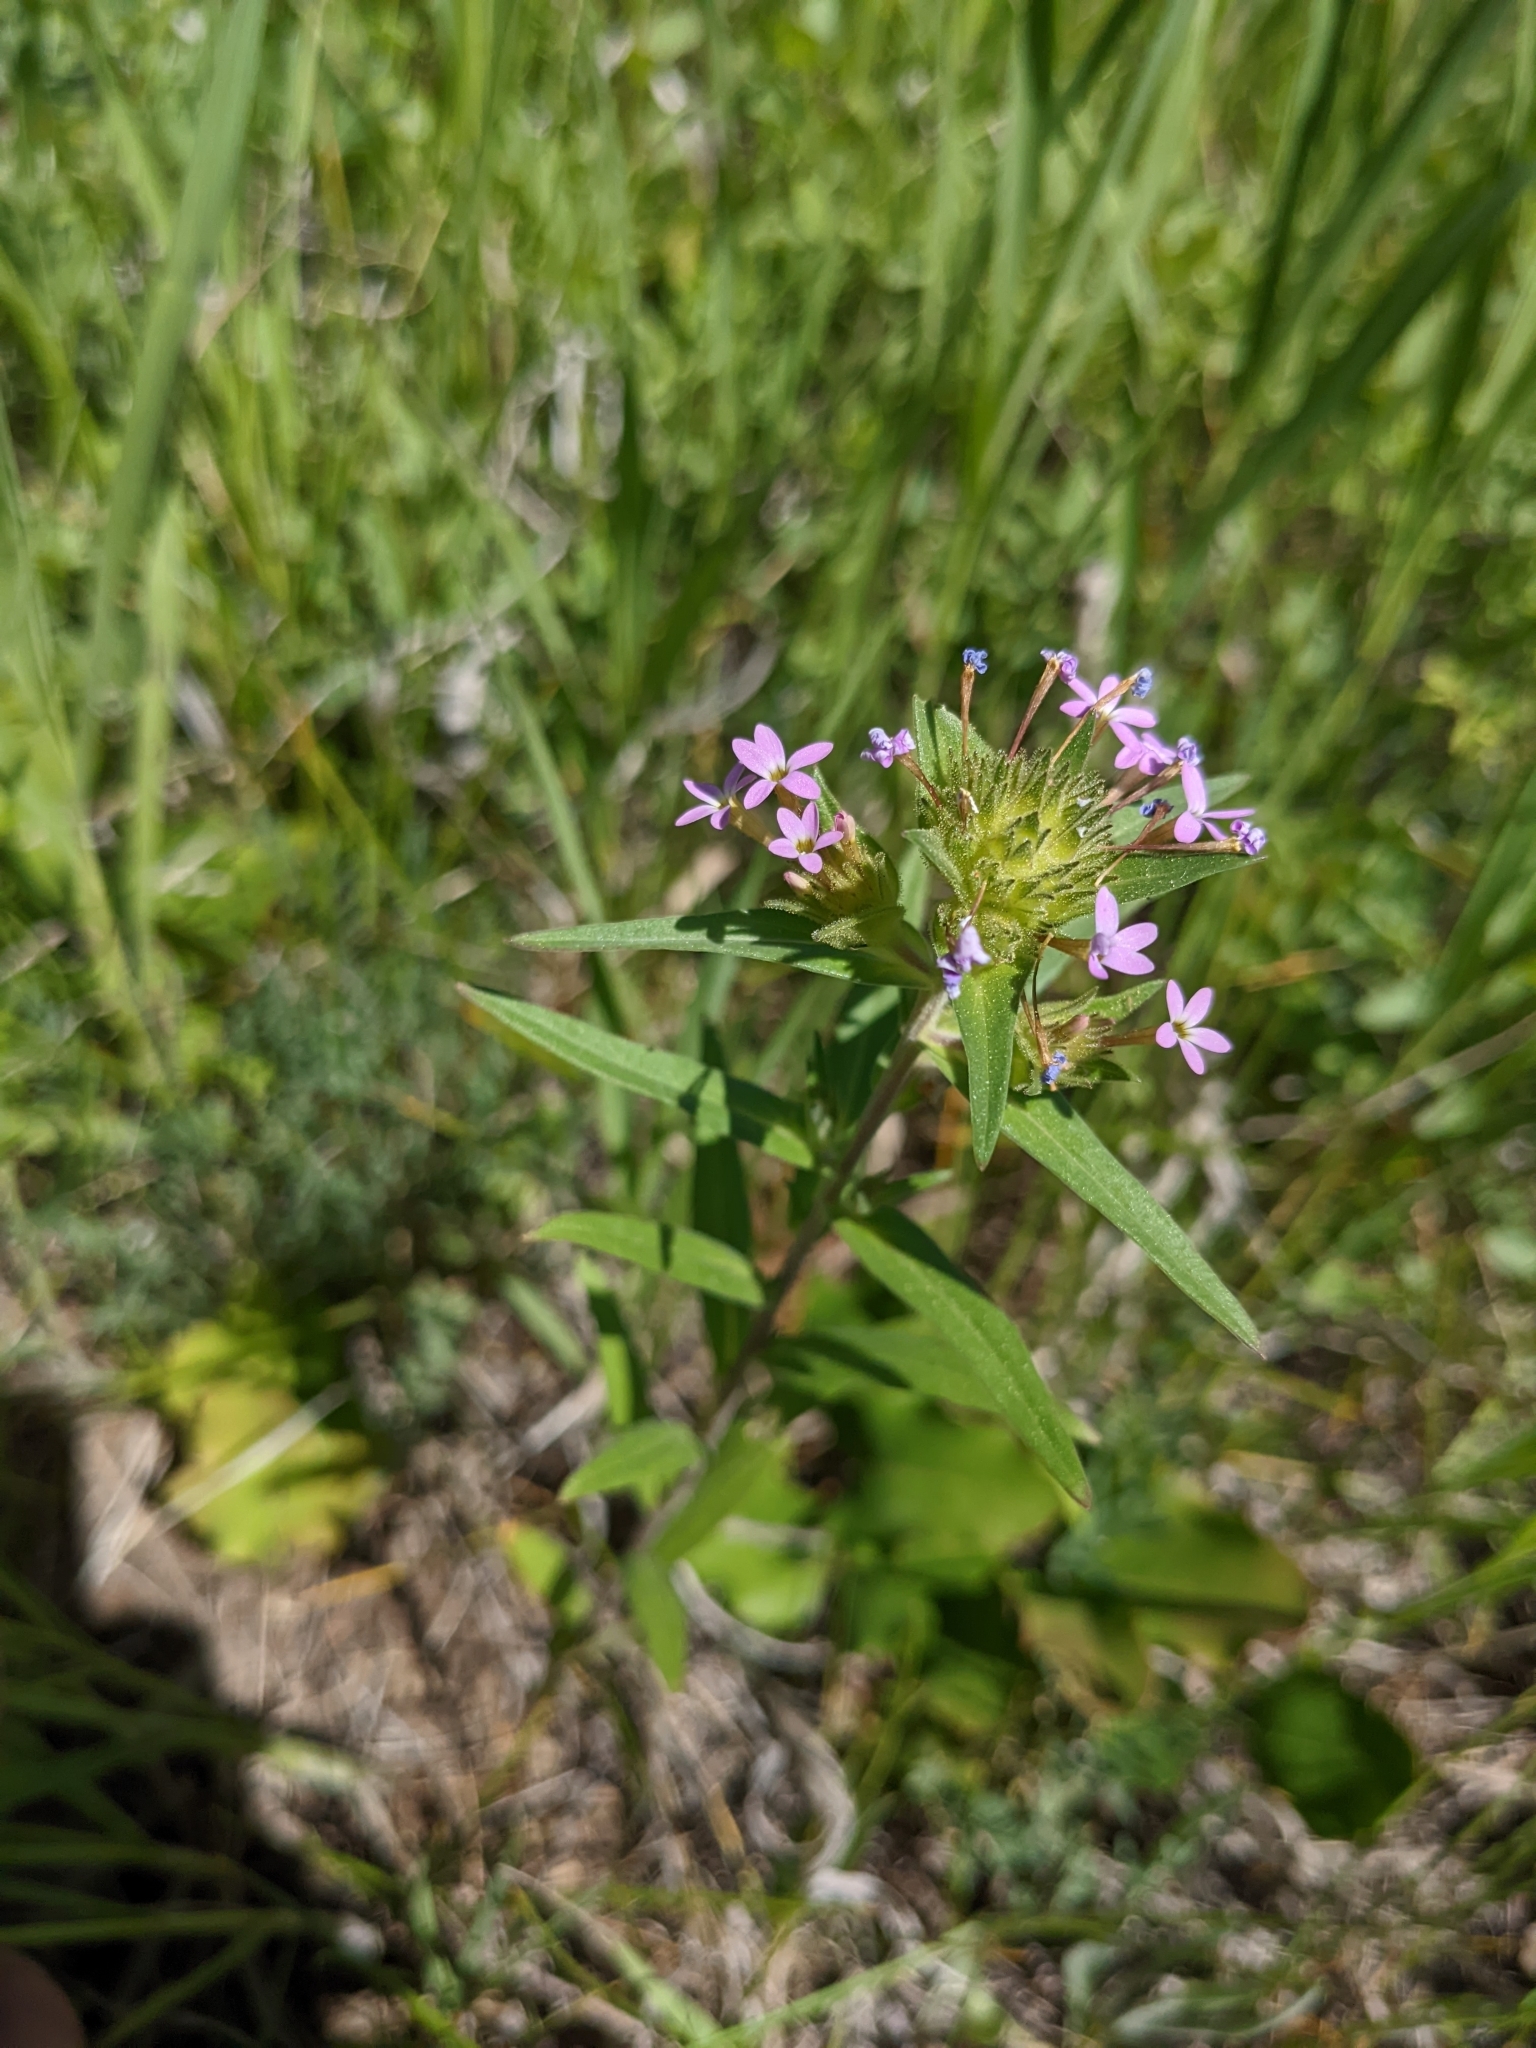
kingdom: Plantae
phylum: Tracheophyta
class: Magnoliopsida
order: Ericales
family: Polemoniaceae
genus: Collomia
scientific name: Collomia linearis
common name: Tiny trumpet
